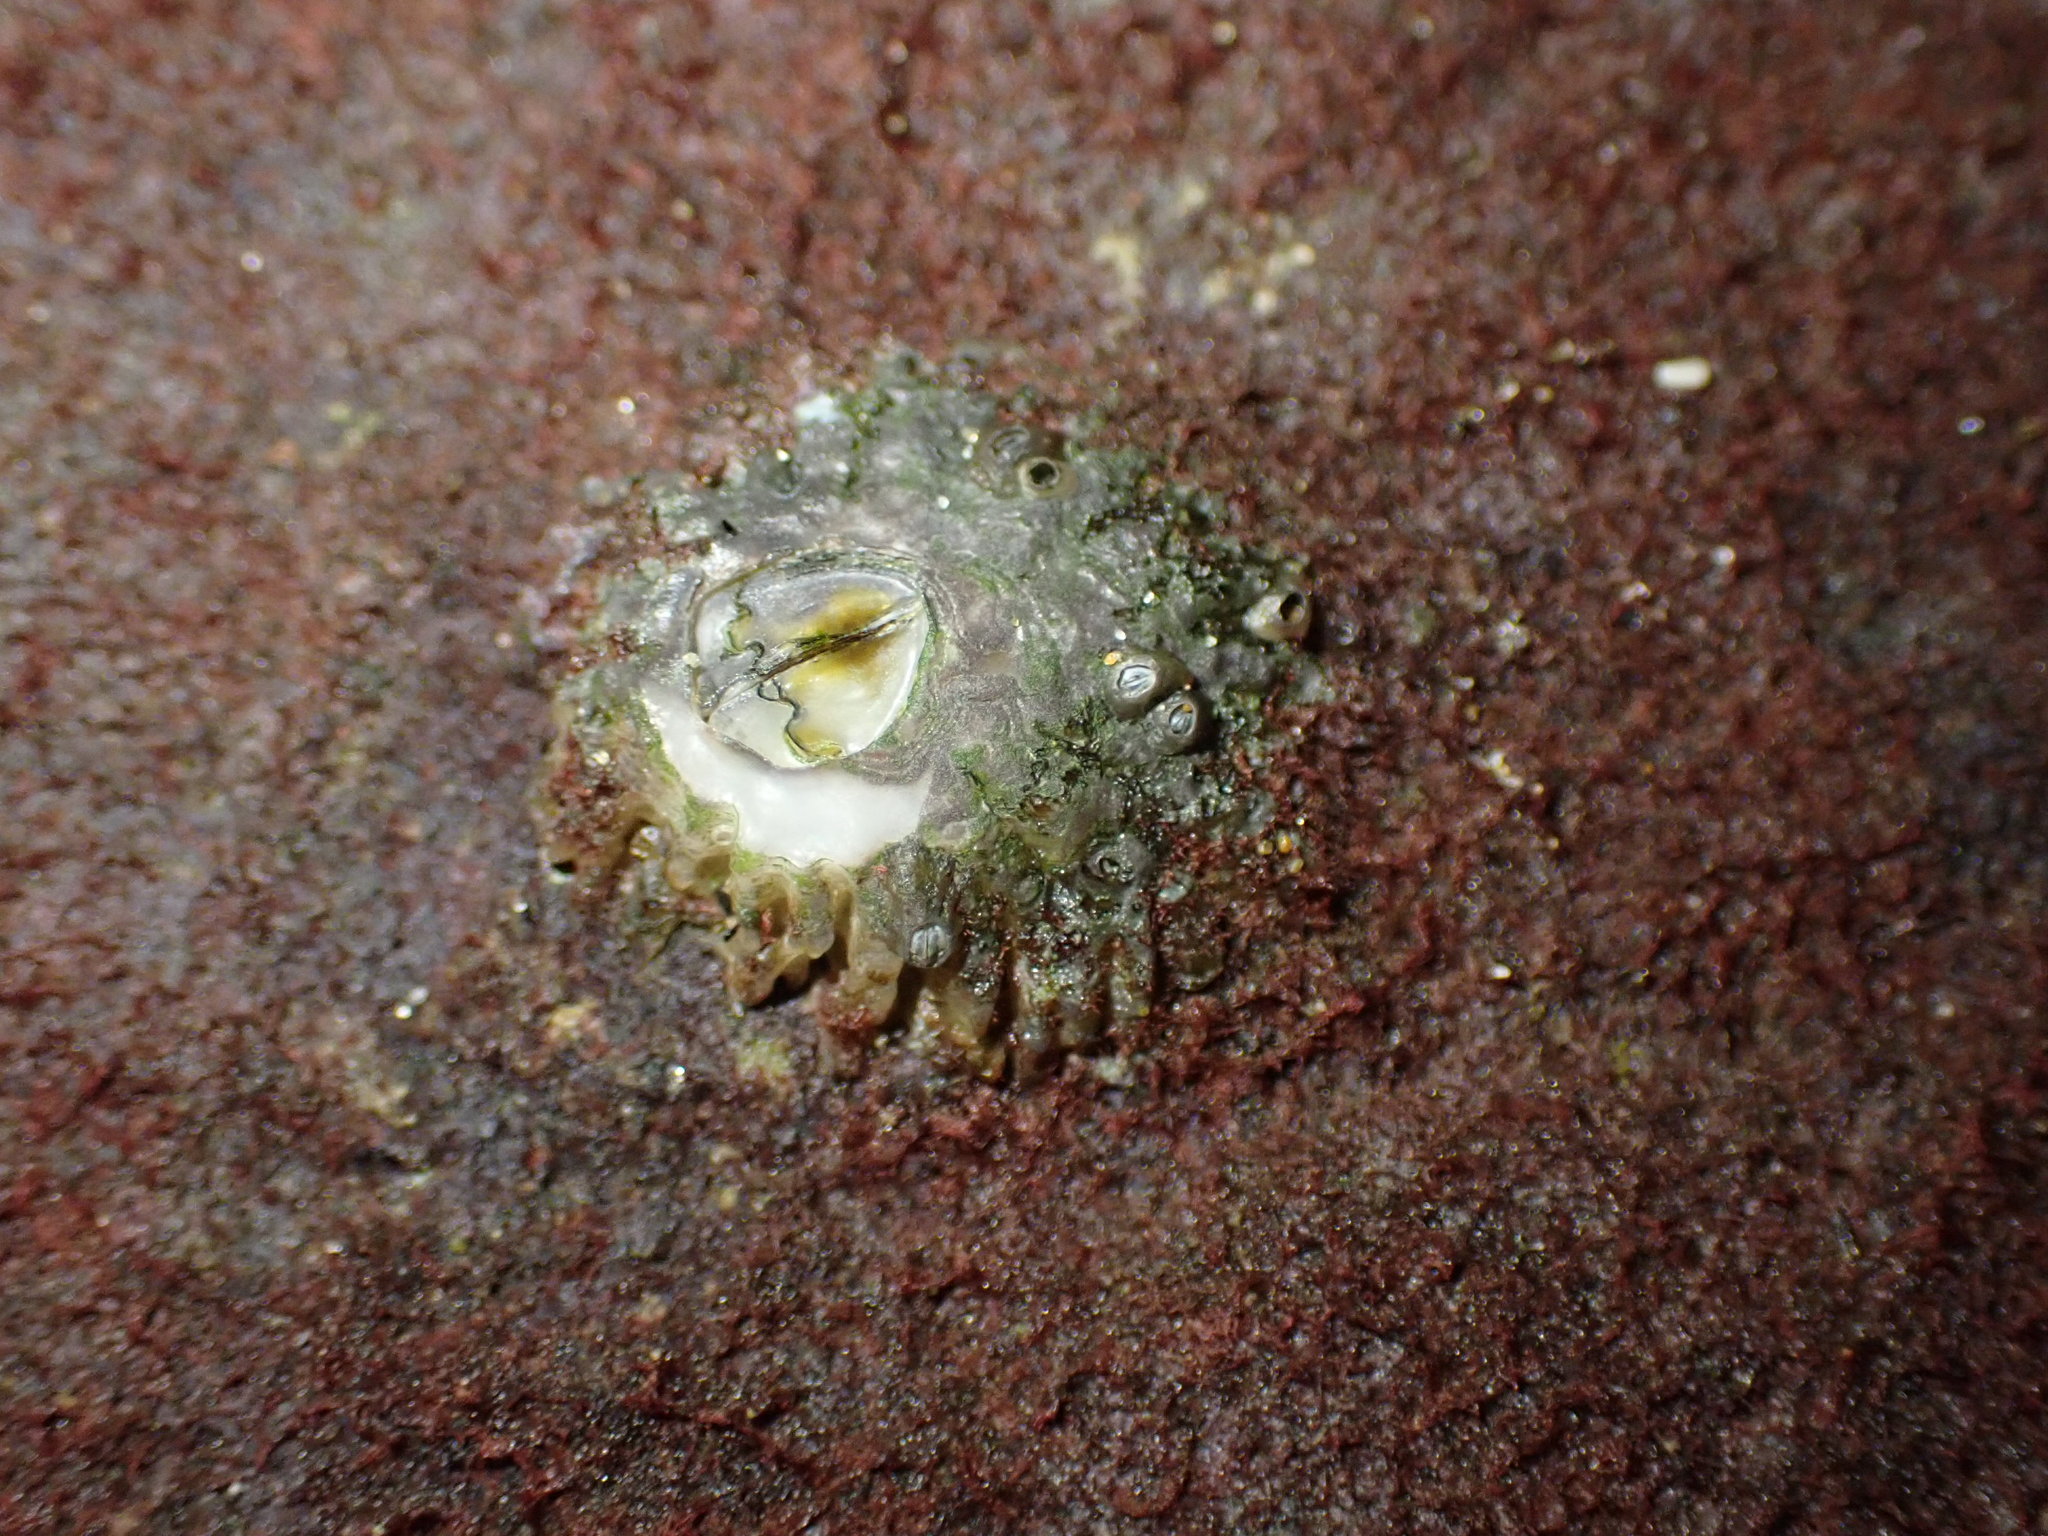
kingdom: Animalia
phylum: Arthropoda
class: Maxillopoda
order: Sessilia
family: Tetraclitidae
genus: Epopella
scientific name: Epopella plicata
